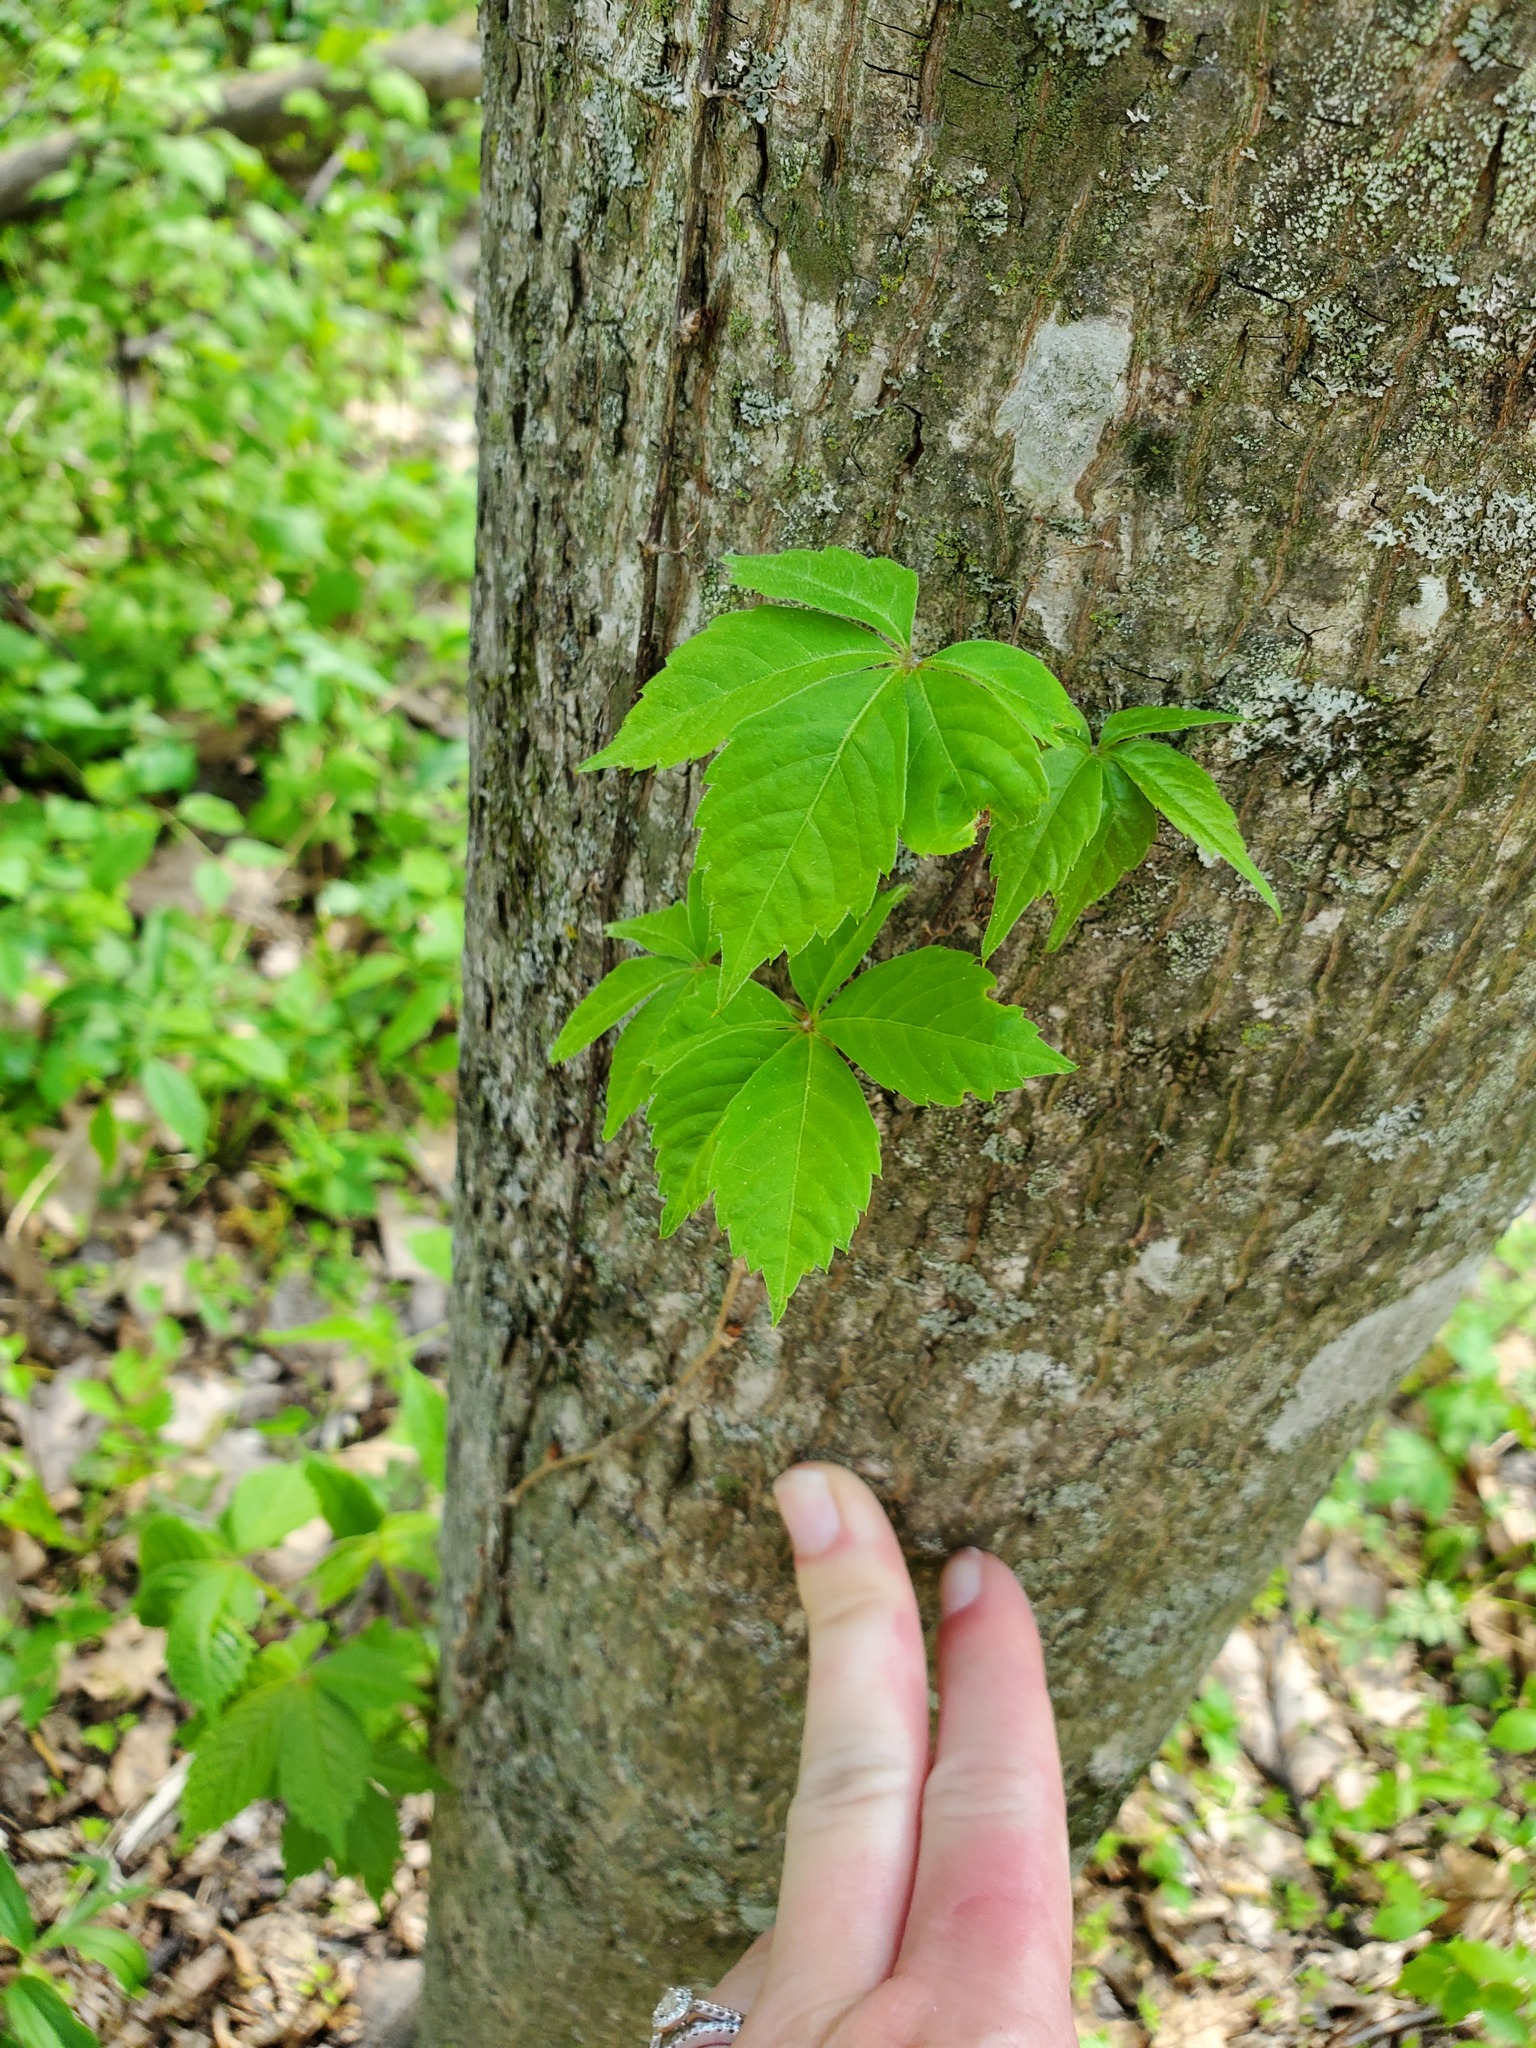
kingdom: Plantae
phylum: Tracheophyta
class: Magnoliopsida
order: Vitales
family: Vitaceae
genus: Parthenocissus
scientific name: Parthenocissus quinquefolia
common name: Virginia-creeper
